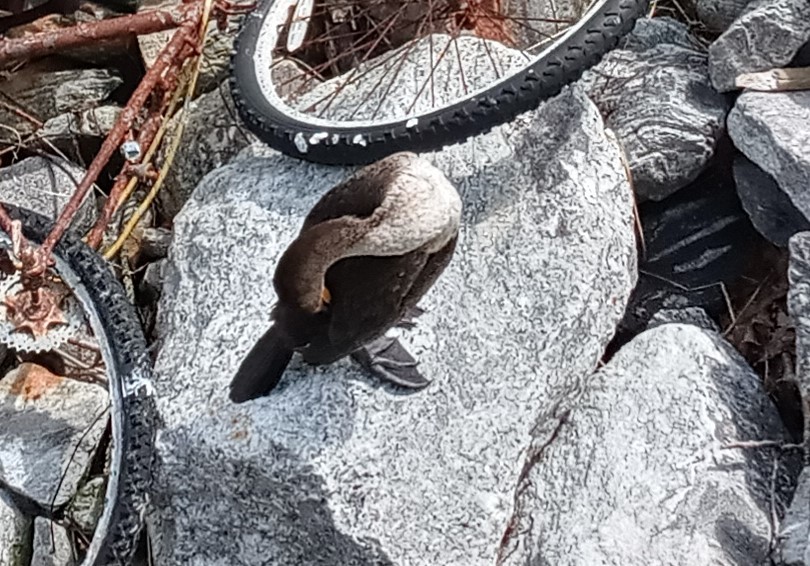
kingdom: Animalia
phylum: Chordata
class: Aves
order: Suliformes
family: Phalacrocoracidae
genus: Phalacrocorax
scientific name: Phalacrocorax auritus
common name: Double-crested cormorant
